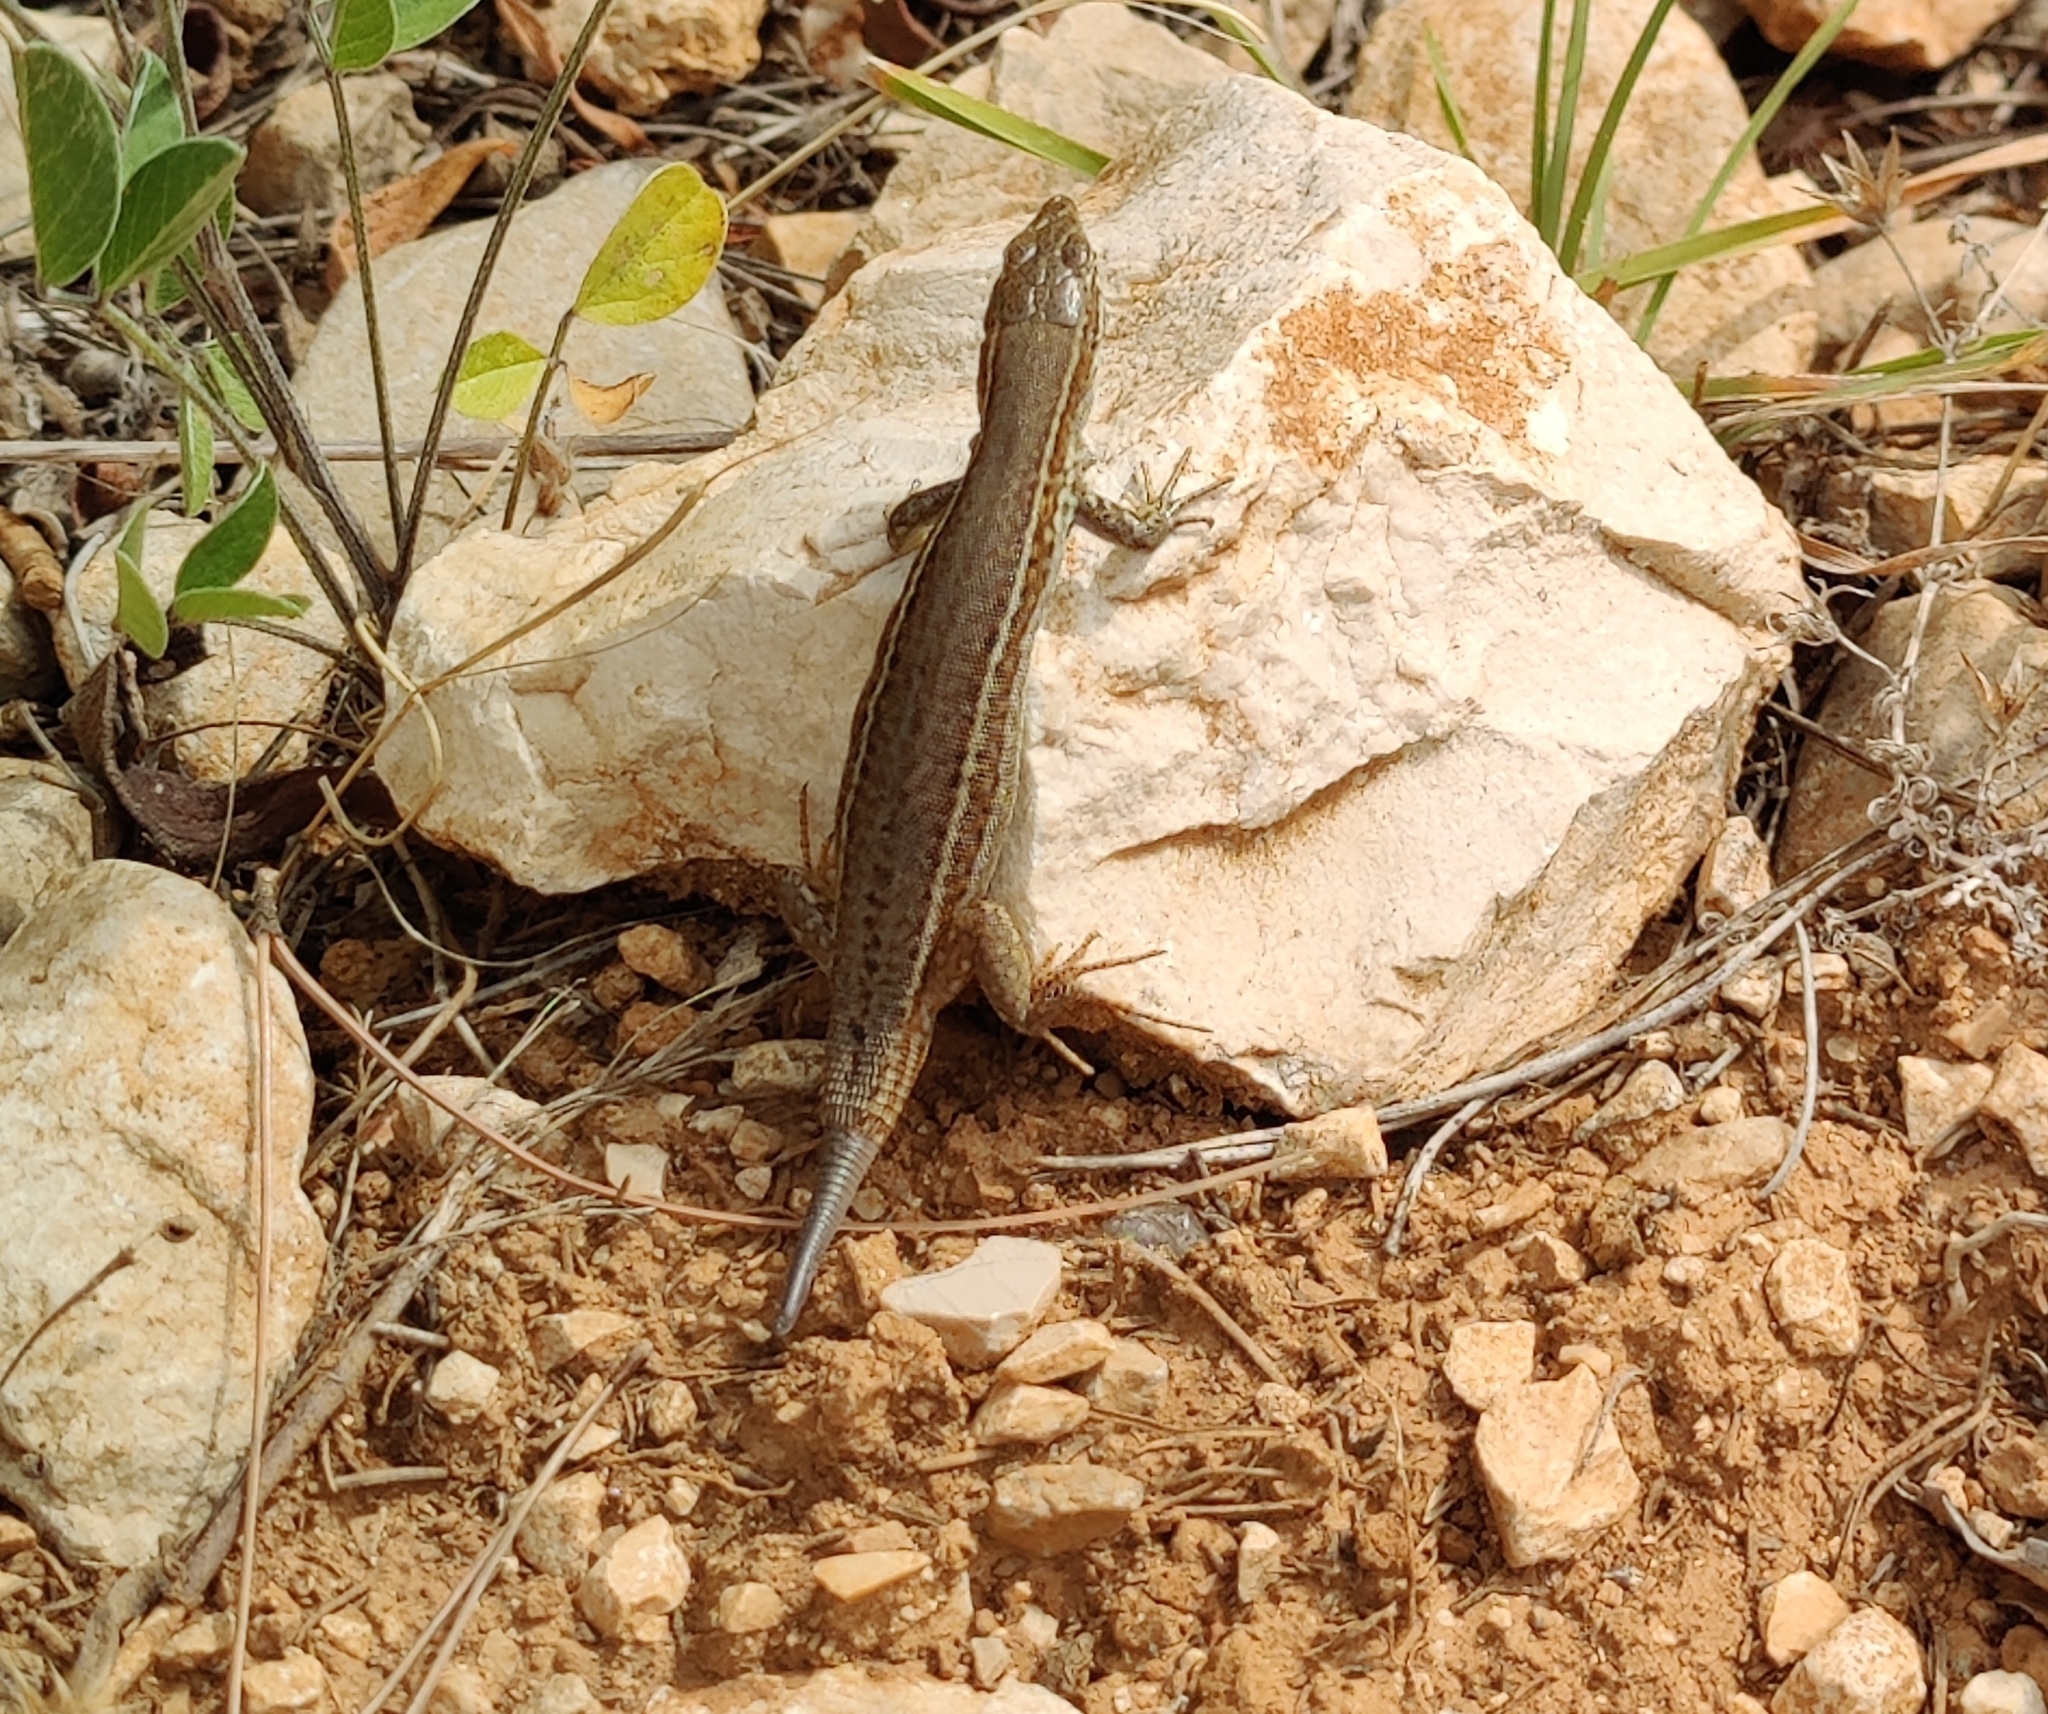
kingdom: Animalia
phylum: Chordata
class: Squamata
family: Lacertidae
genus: Podarcis
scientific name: Podarcis melisellensis
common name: Dalmatian wall lizard
